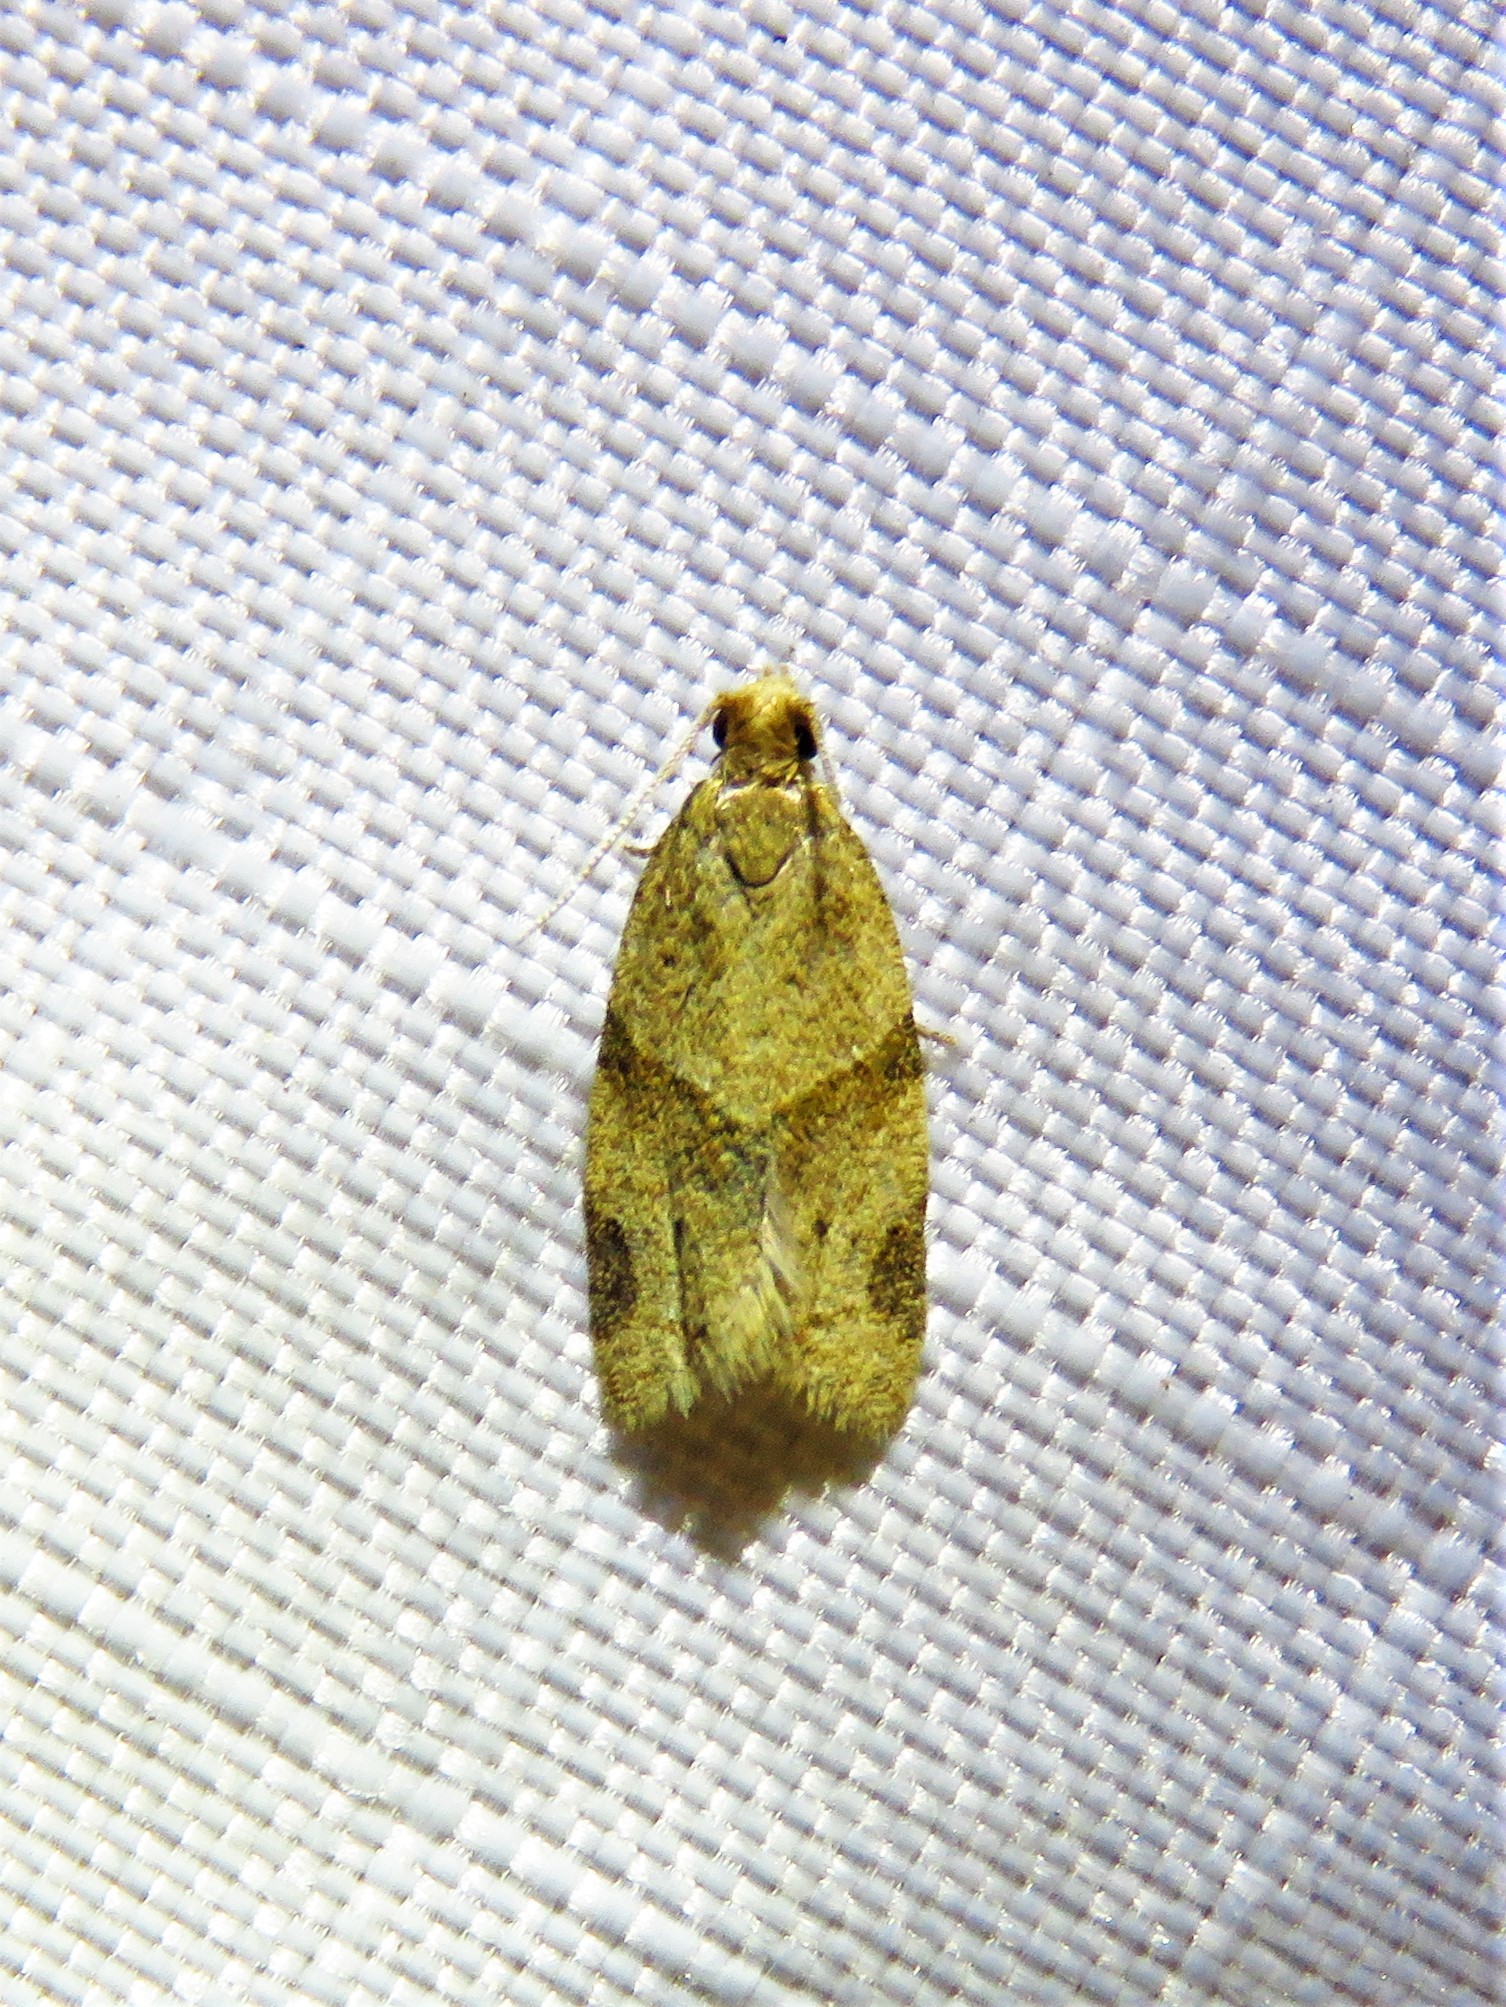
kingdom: Animalia
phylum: Arthropoda
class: Insecta
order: Lepidoptera
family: Tortricidae
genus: Clepsis
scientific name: Clepsis peritana
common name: Garden tortrix
